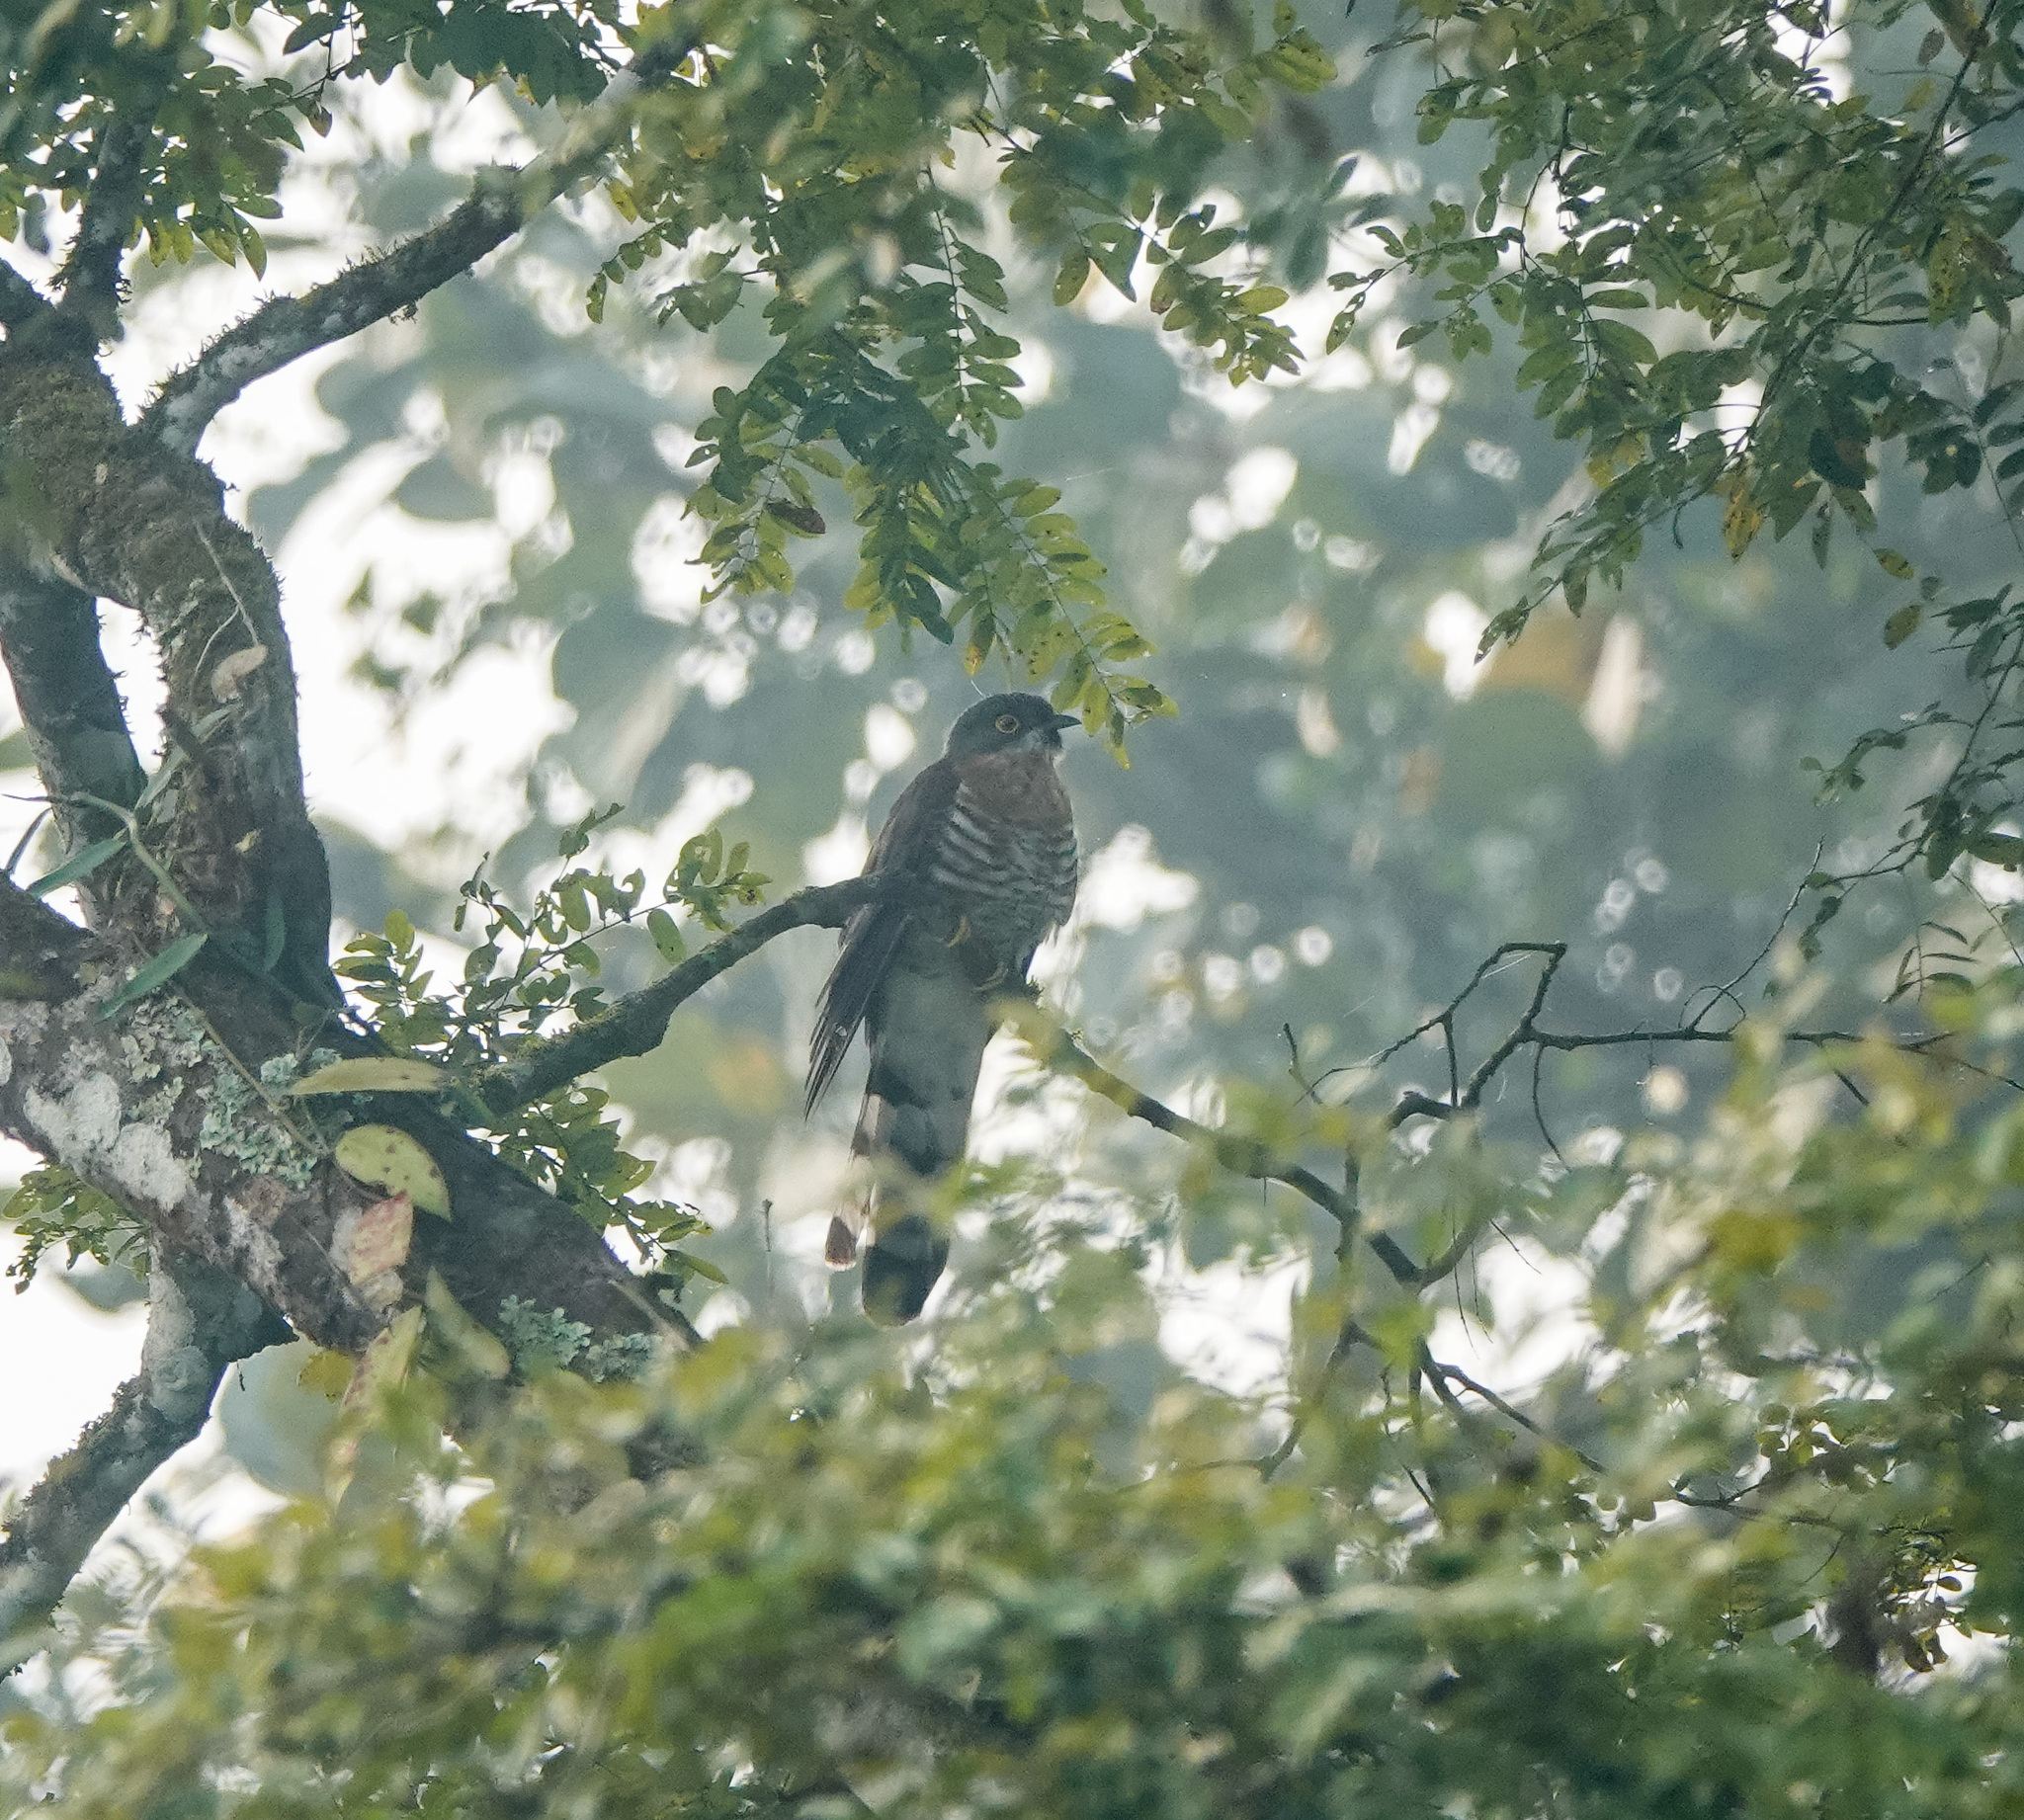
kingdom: Animalia
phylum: Chordata
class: Aves
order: Cuculiformes
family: Cuculidae
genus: Cuculus
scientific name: Cuculus sparverioides
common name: Large hawk cuckoo
